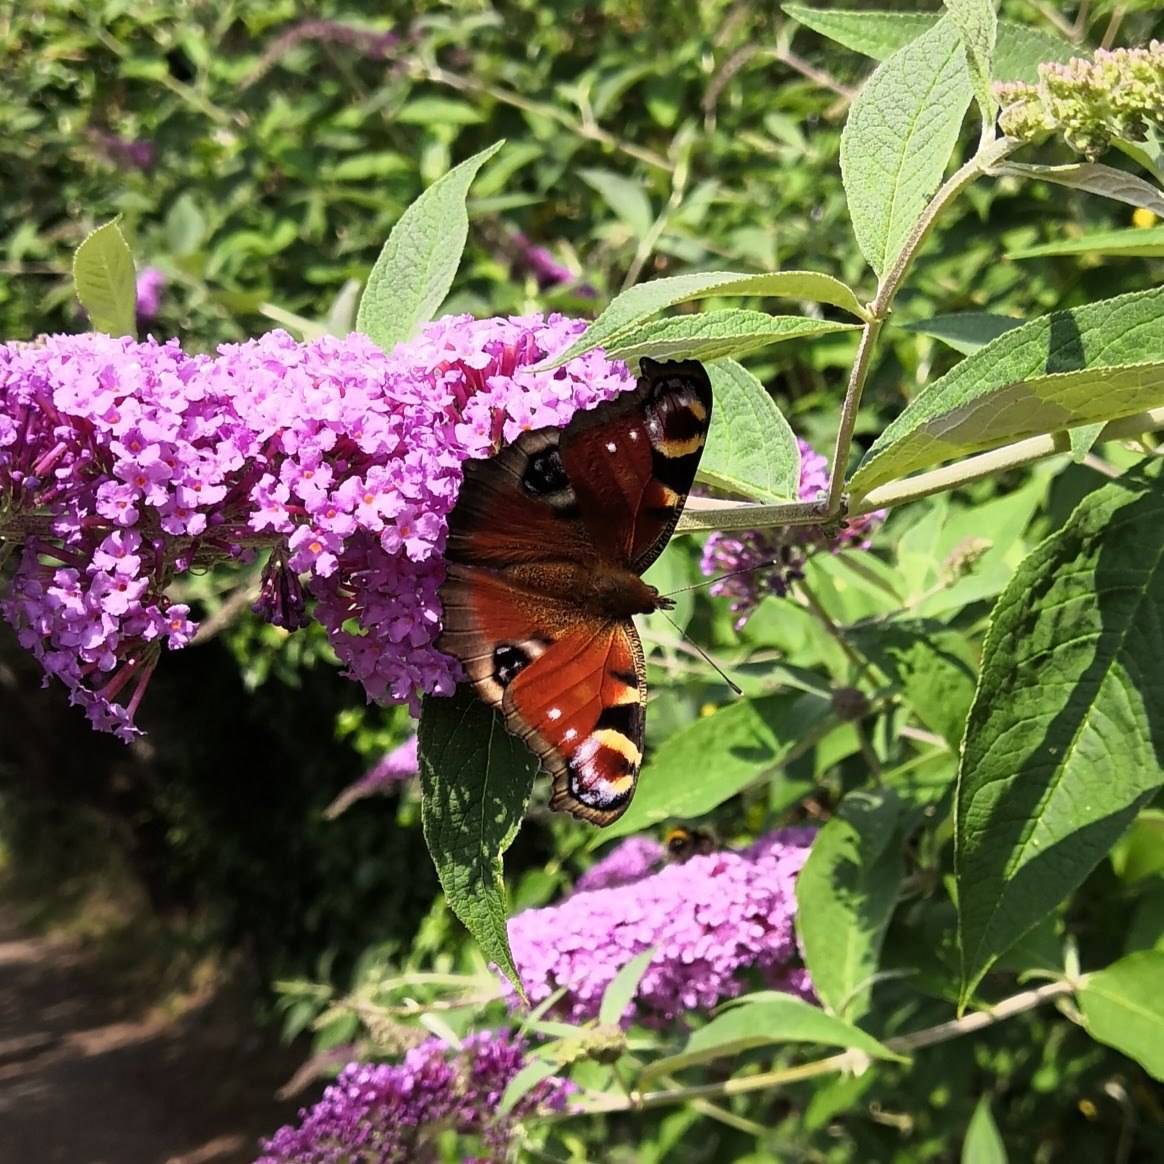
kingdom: Animalia
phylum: Arthropoda
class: Insecta
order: Lepidoptera
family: Nymphalidae
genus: Aglais
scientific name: Aglais io
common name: Peacock
